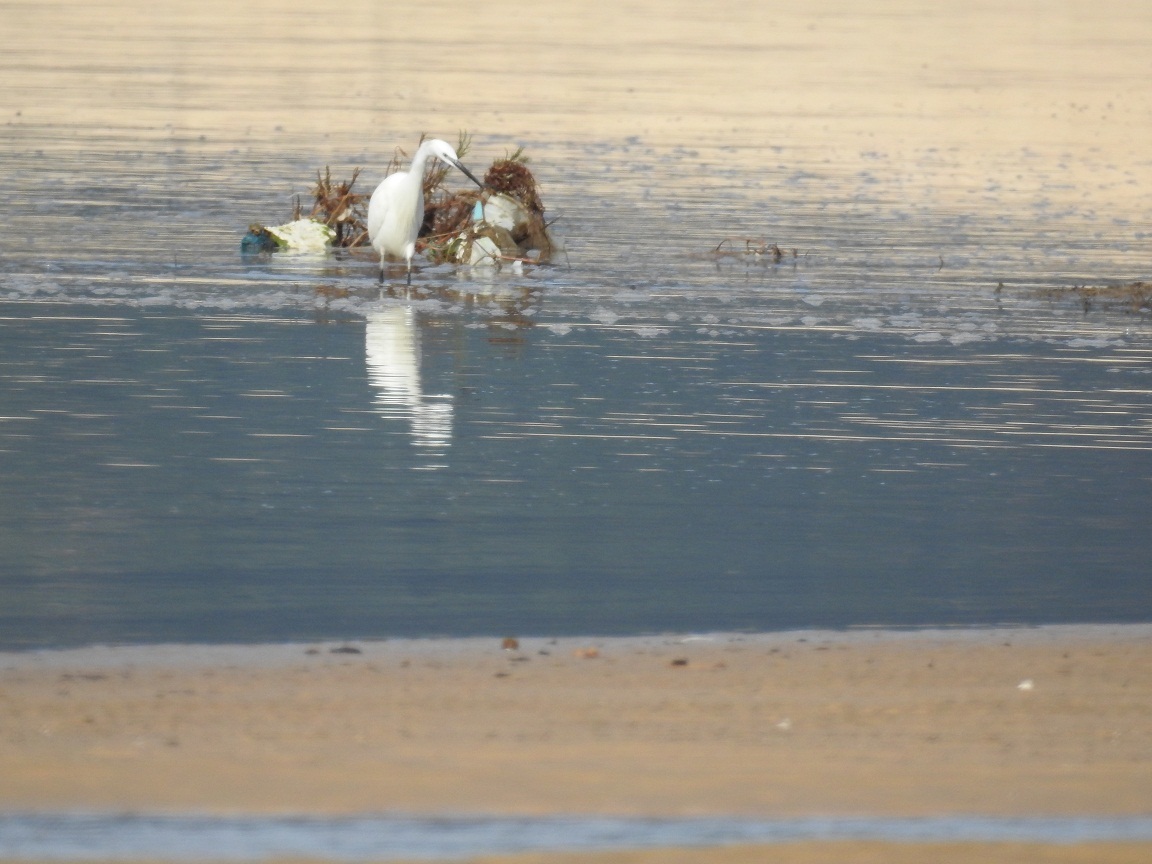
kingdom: Animalia
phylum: Chordata
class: Aves
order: Pelecaniformes
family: Ardeidae
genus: Egretta
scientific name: Egretta garzetta
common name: Little egret
